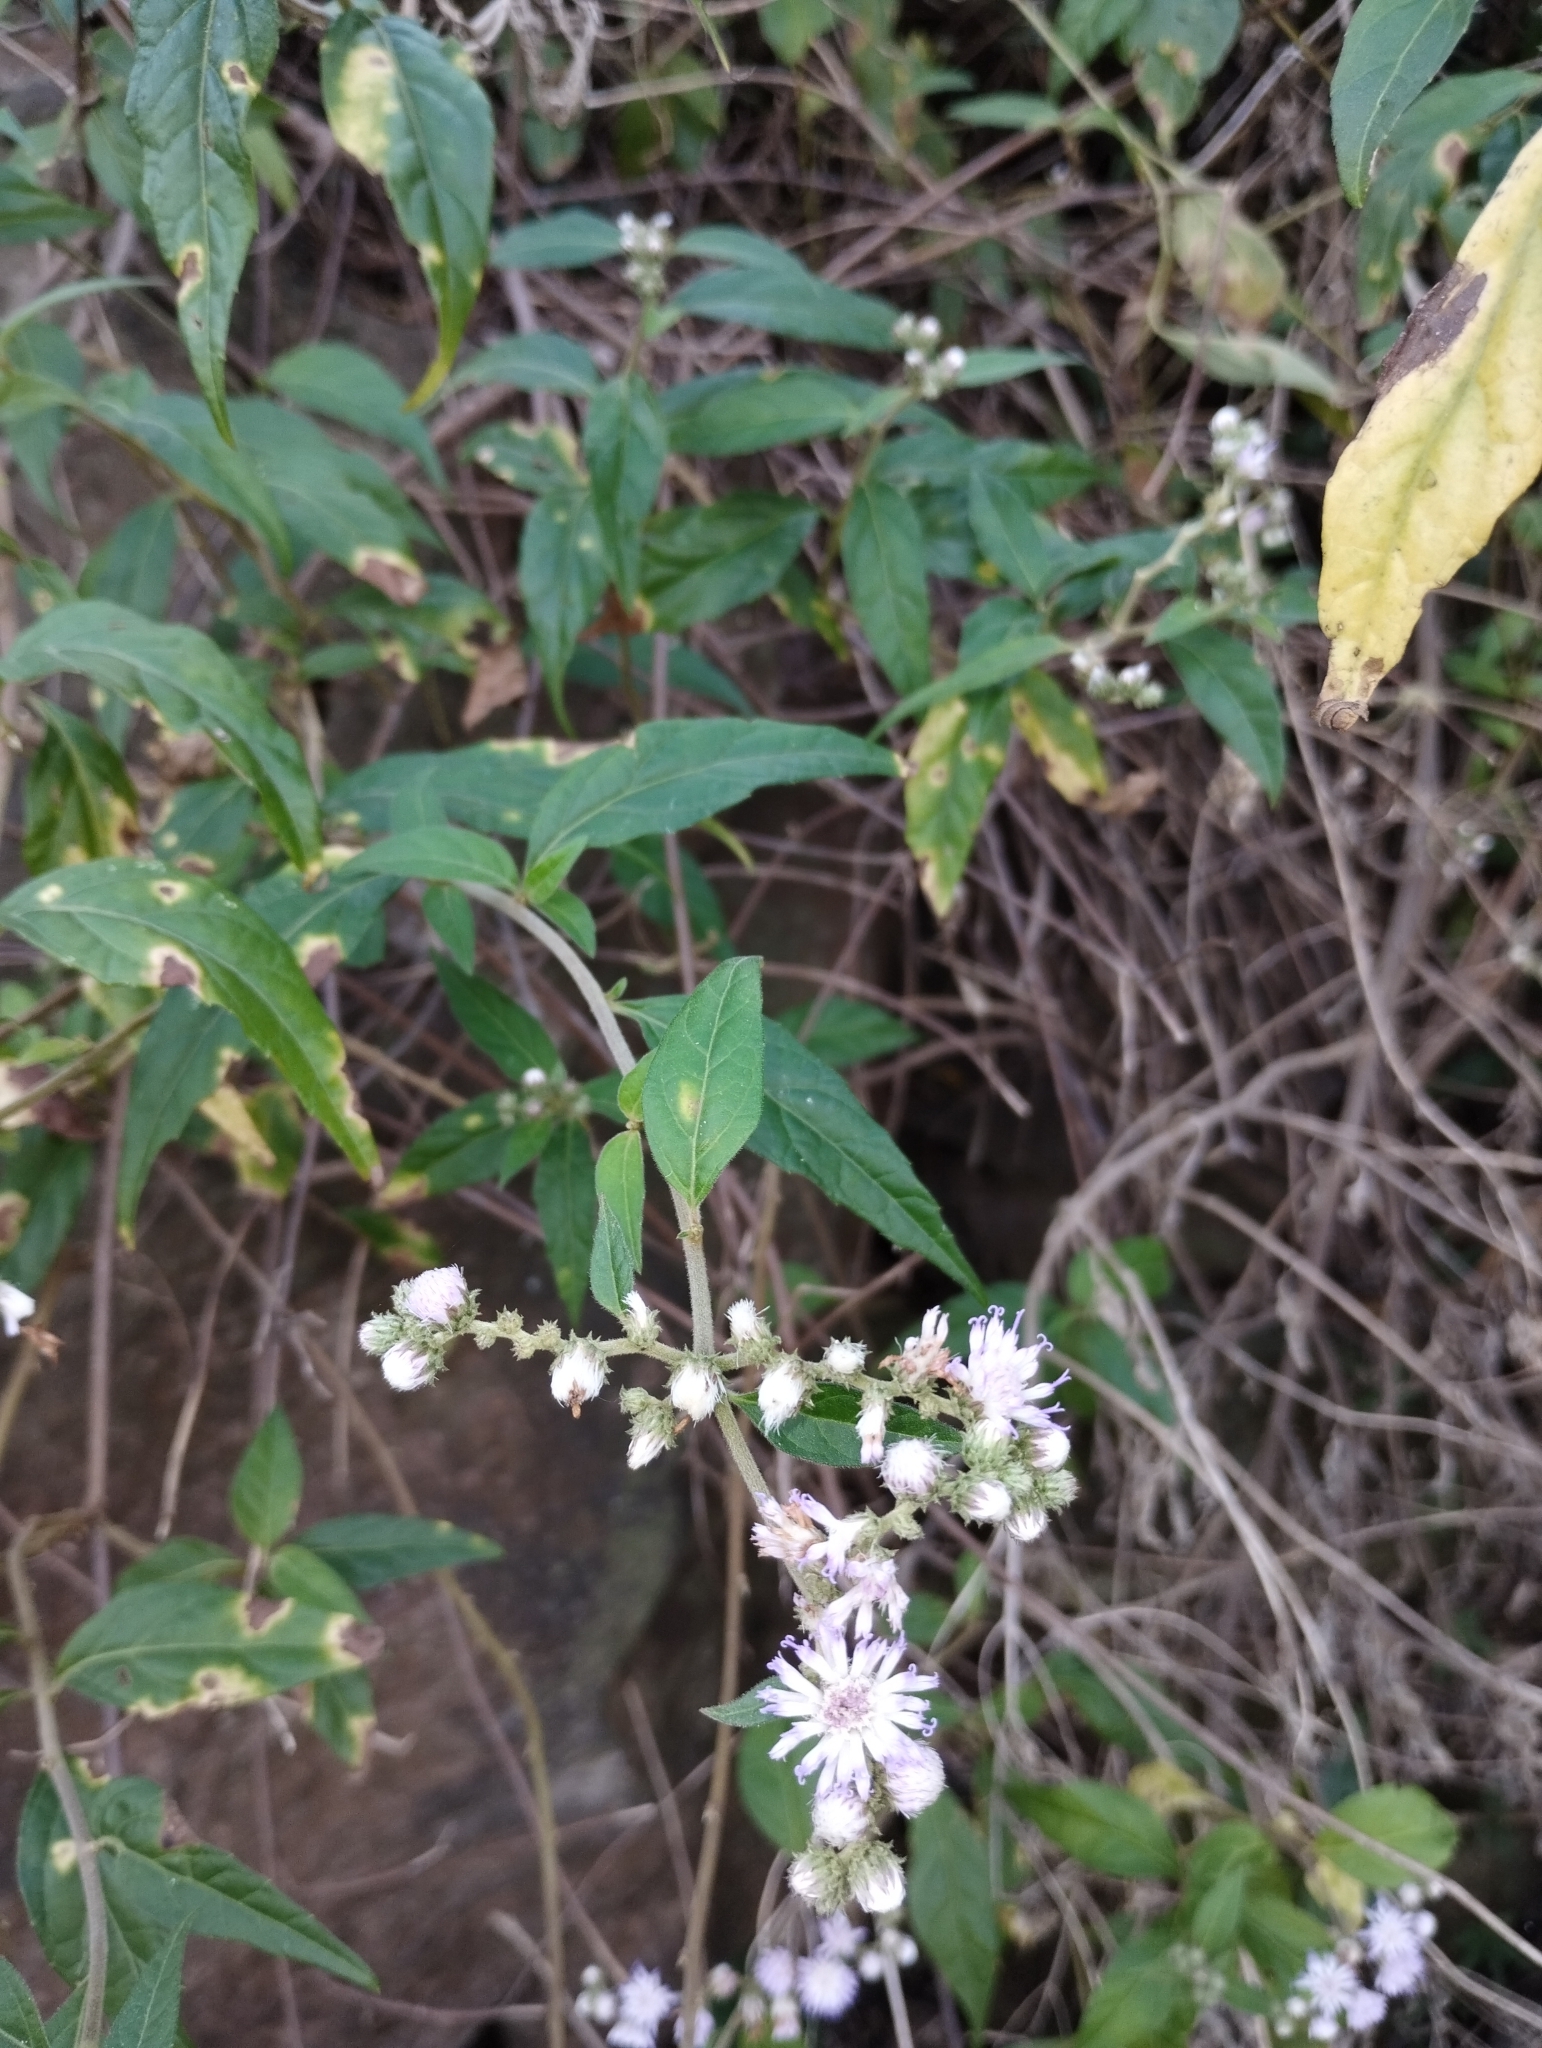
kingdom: Plantae
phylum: Tracheophyta
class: Magnoliopsida
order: Asterales
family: Asteraceae
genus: Cyrtocymura
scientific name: Cyrtocymura scorpioides
